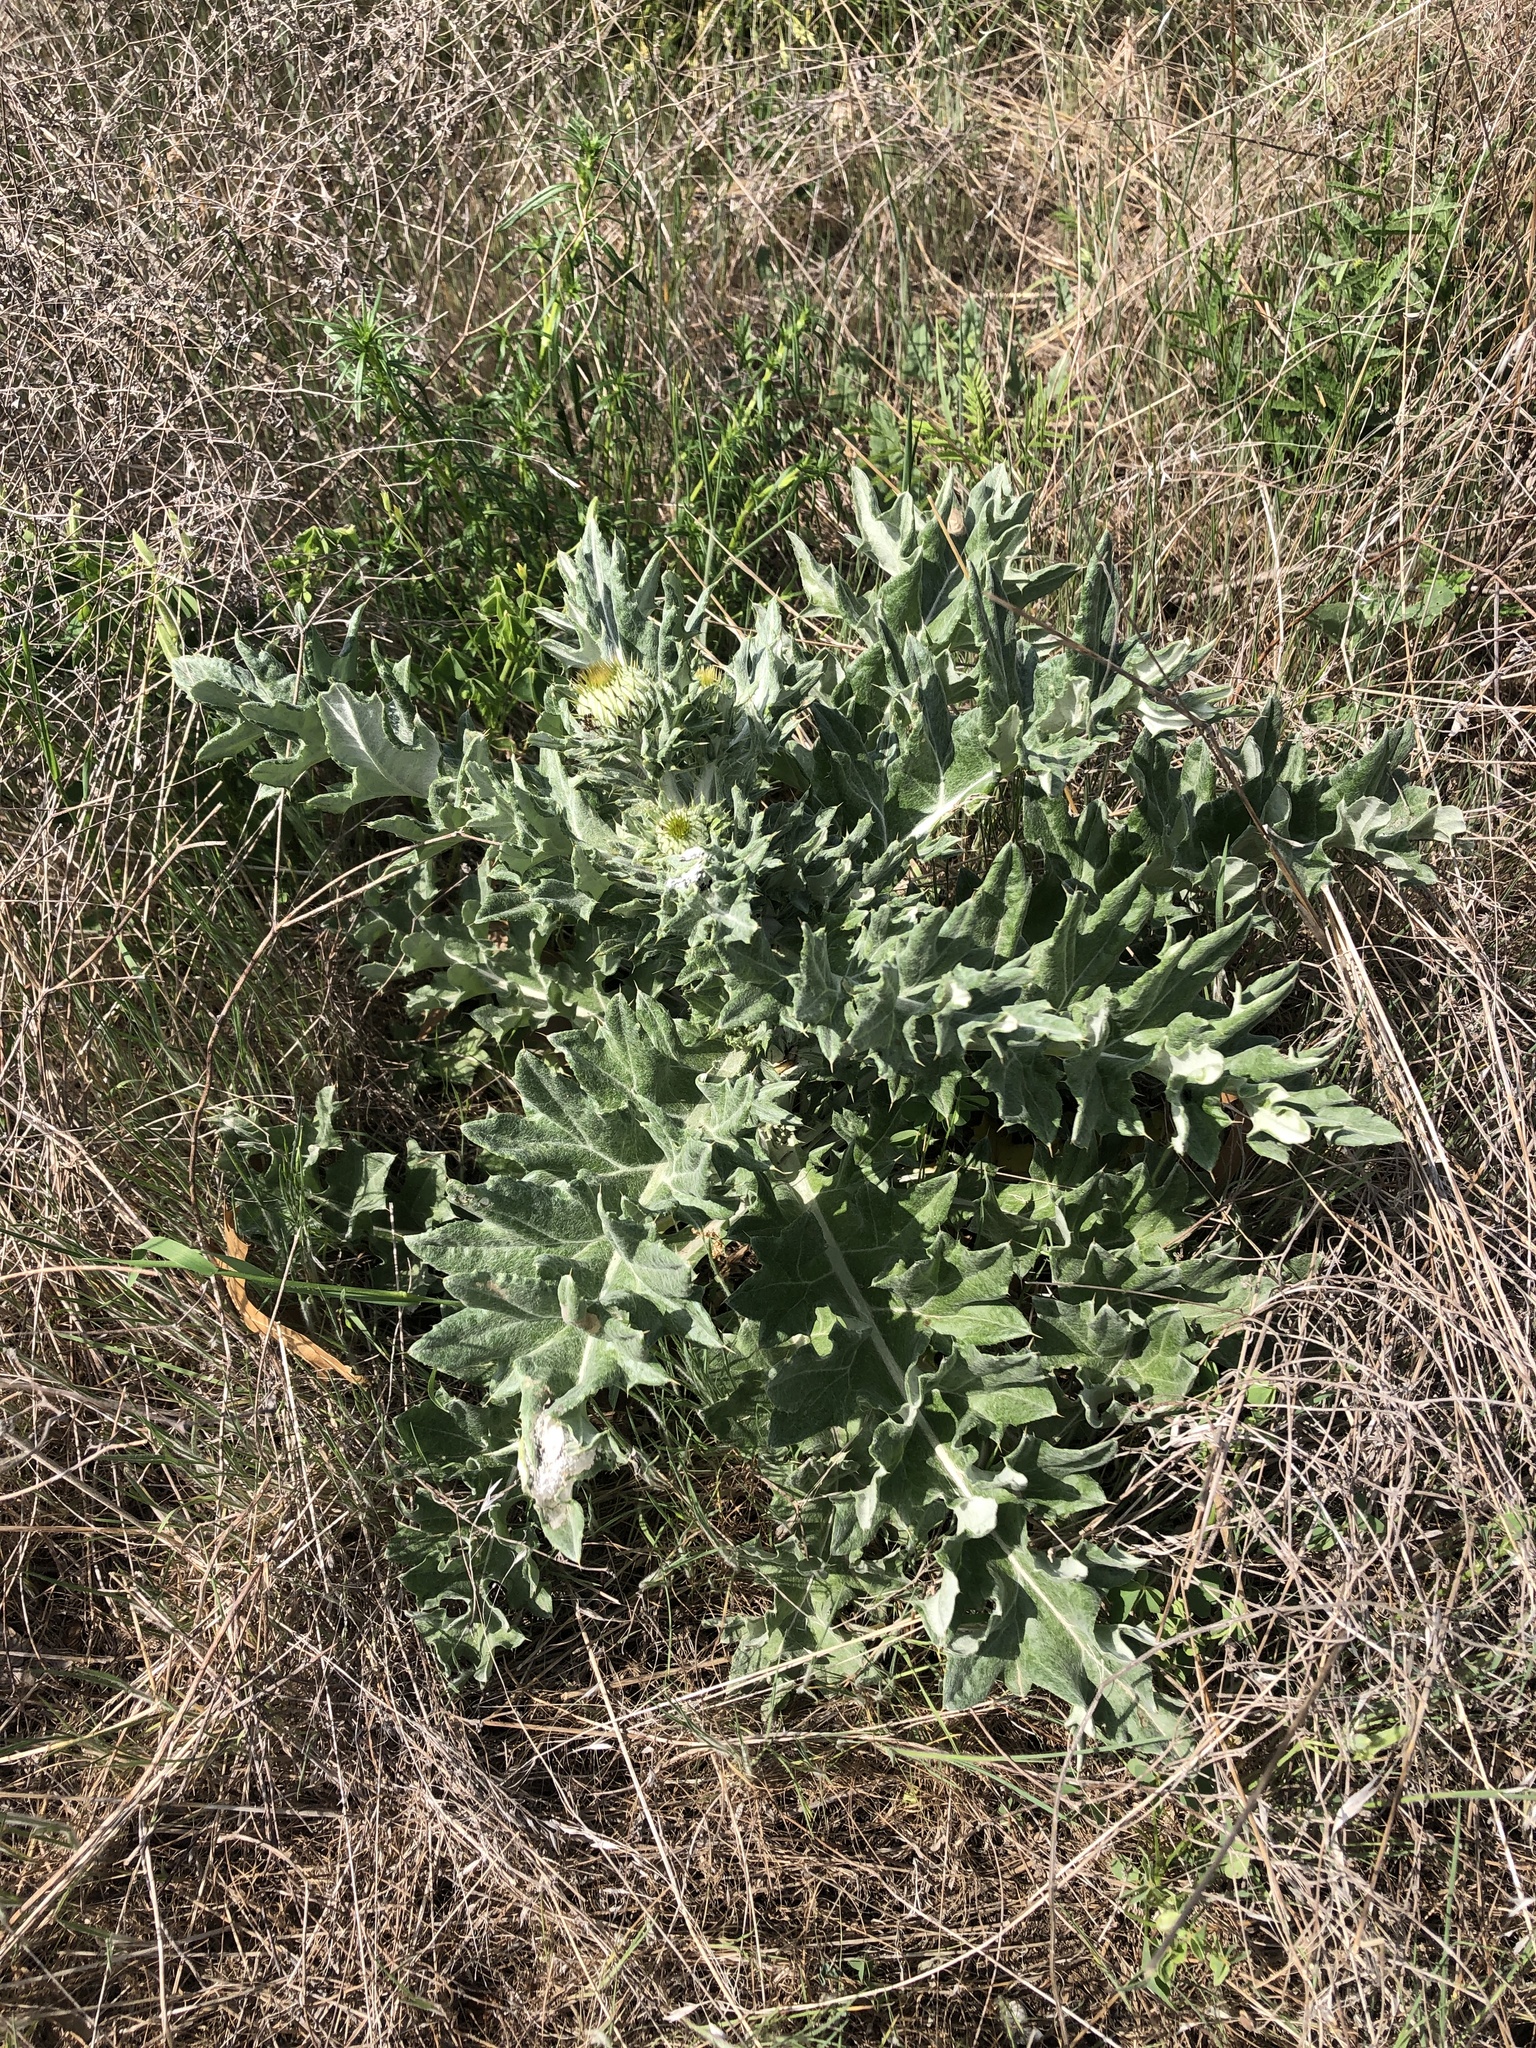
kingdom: Plantae
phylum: Tracheophyta
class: Magnoliopsida
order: Asterales
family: Asteraceae
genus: Cirsium
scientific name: Cirsium undulatum
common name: Pasture thistle
